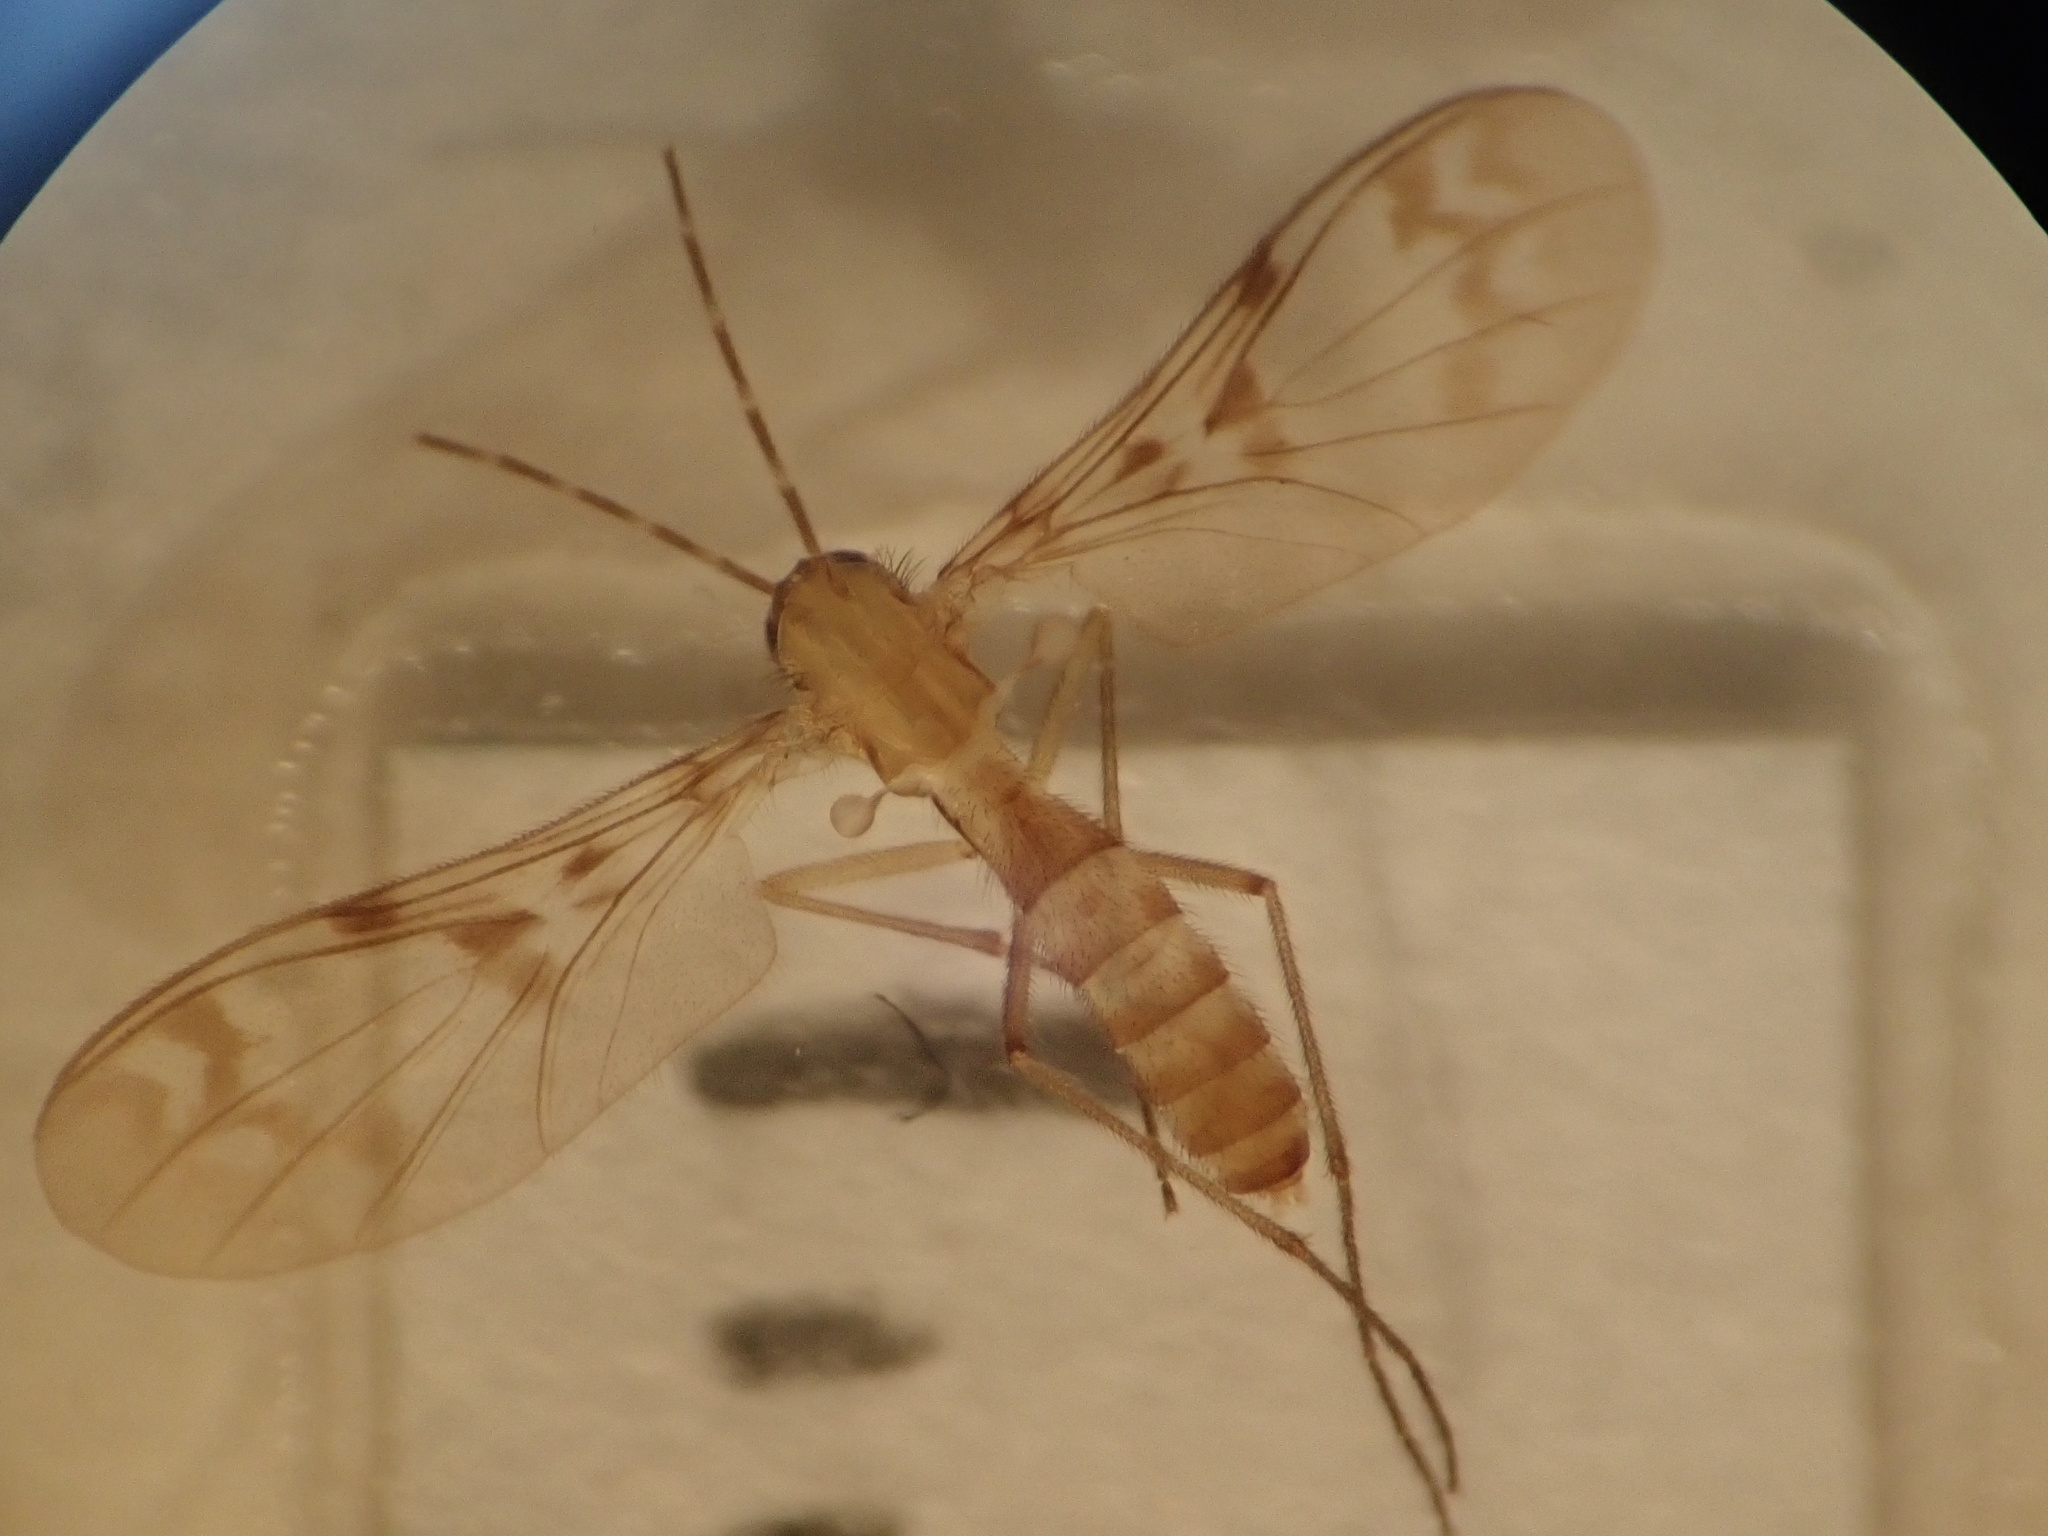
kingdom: Animalia
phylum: Arthropoda
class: Insecta
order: Diptera
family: Keroplatidae
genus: Chiasmoneura
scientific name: Chiasmoneura milligani
